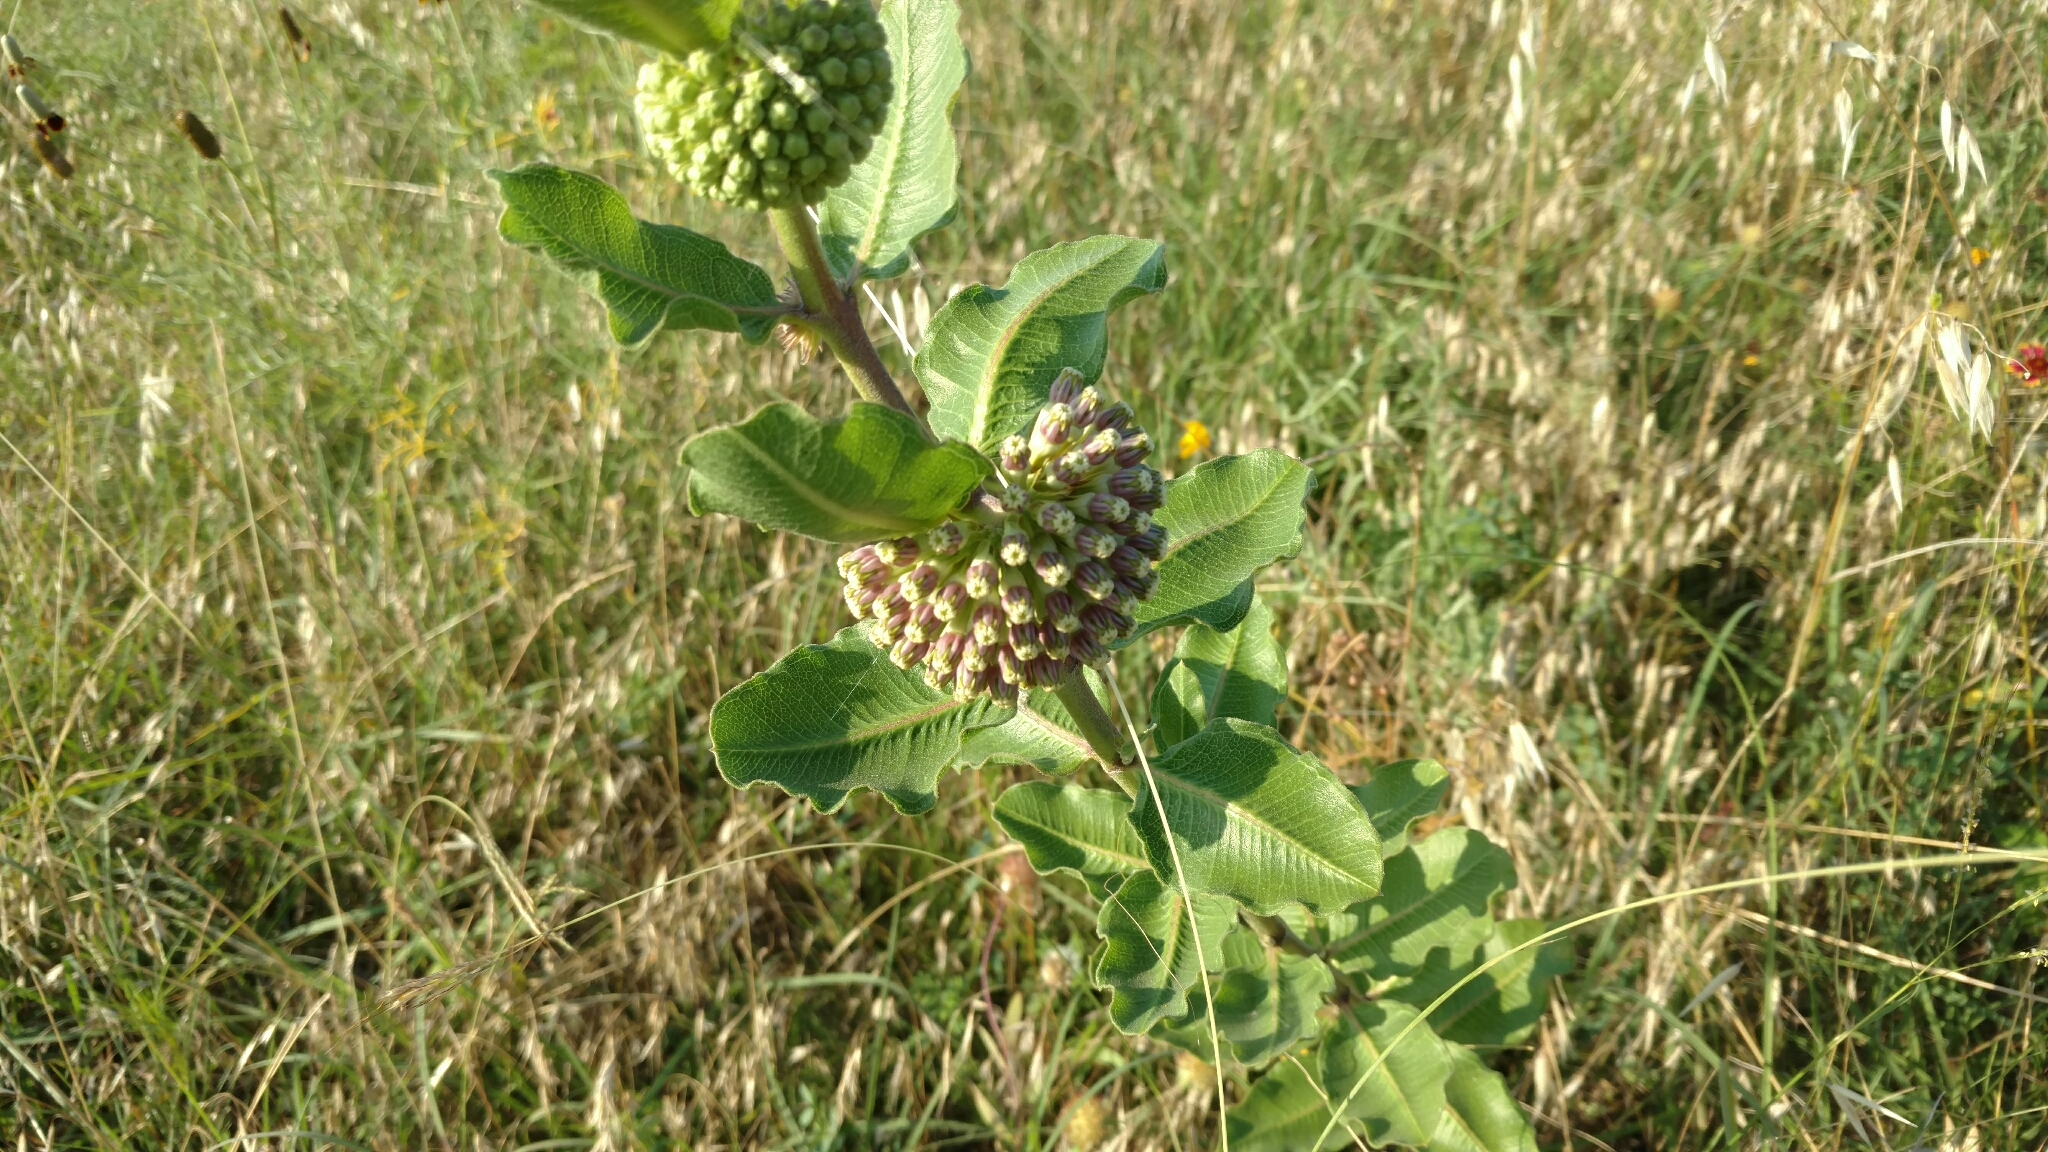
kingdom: Plantae
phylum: Tracheophyta
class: Magnoliopsida
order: Gentianales
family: Apocynaceae
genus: Asclepias
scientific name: Asclepias viridiflora
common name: Green comet milkweed
